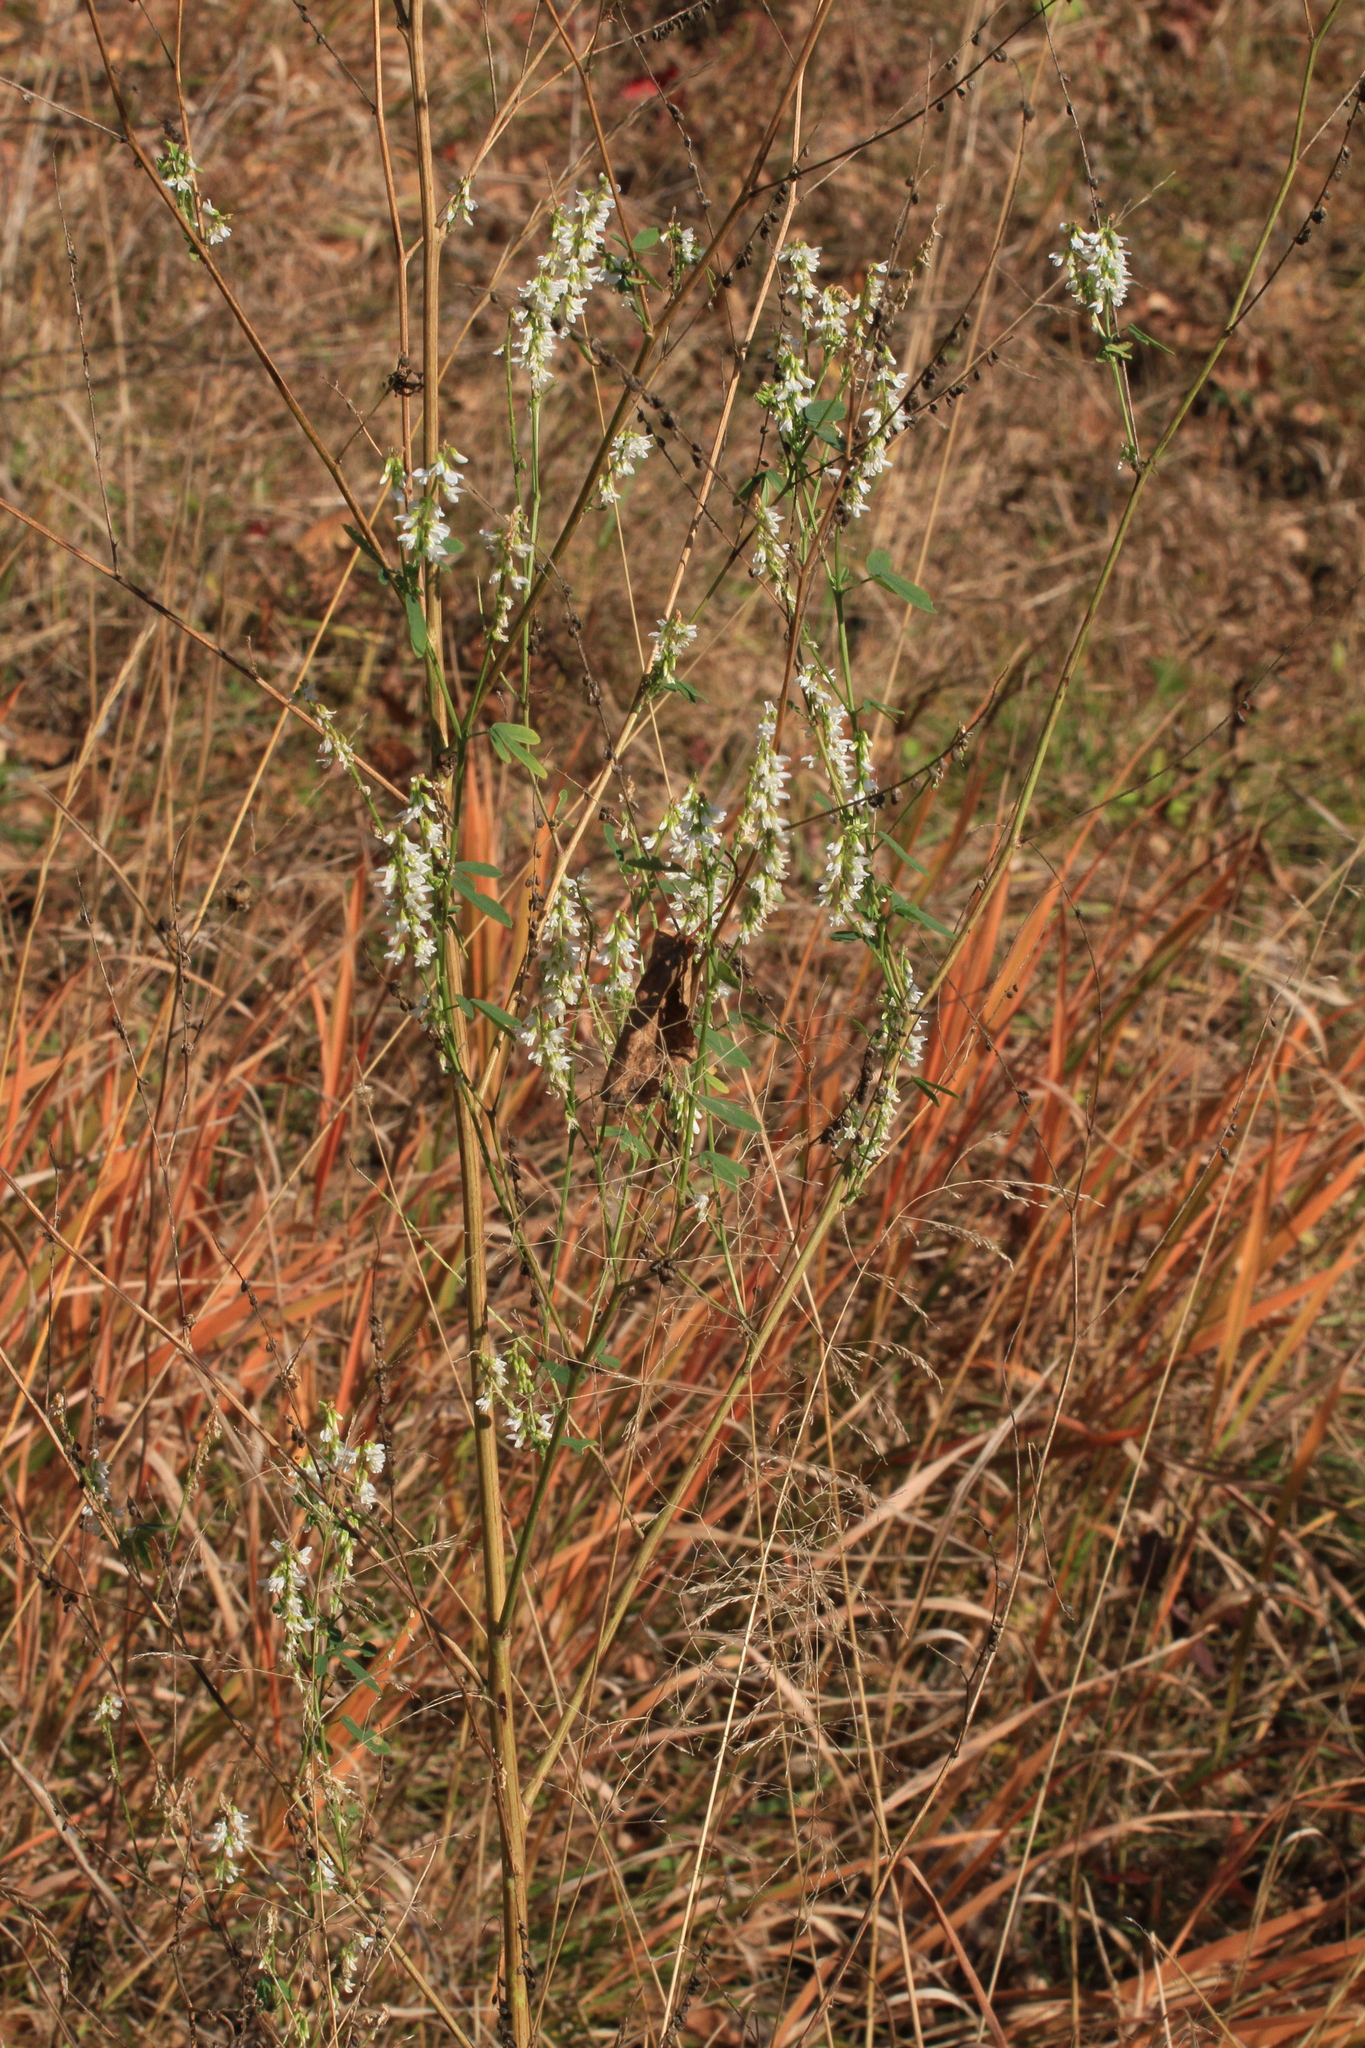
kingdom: Plantae
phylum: Tracheophyta
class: Magnoliopsida
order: Fabales
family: Fabaceae
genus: Melilotus
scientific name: Melilotus albus
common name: White melilot
